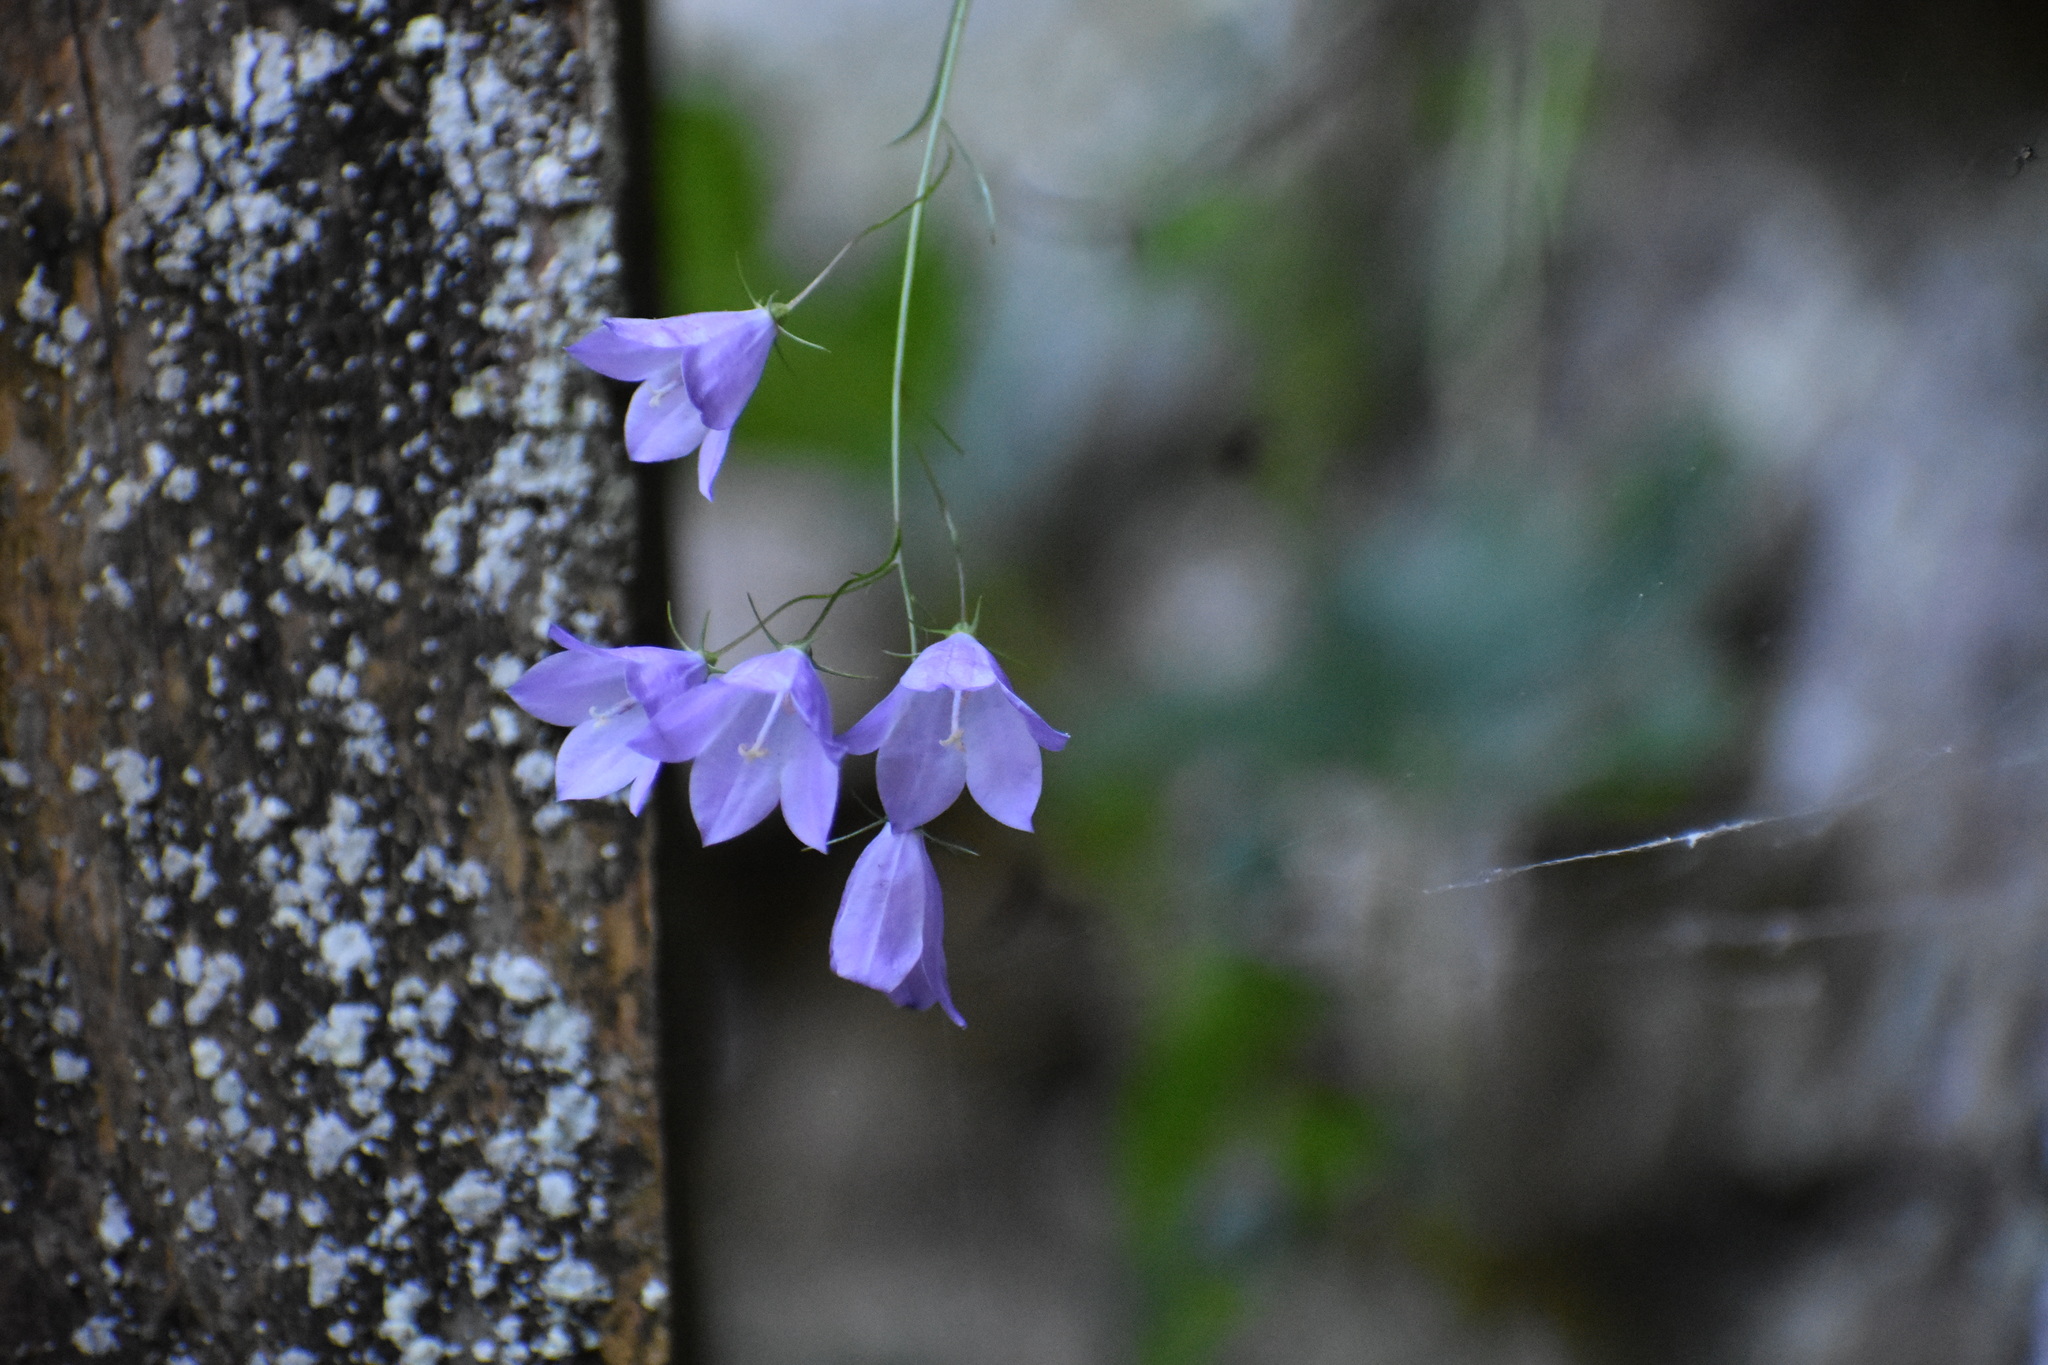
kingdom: Plantae
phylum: Tracheophyta
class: Magnoliopsida
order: Asterales
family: Campanulaceae
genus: Campanula
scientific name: Campanula intercedens
